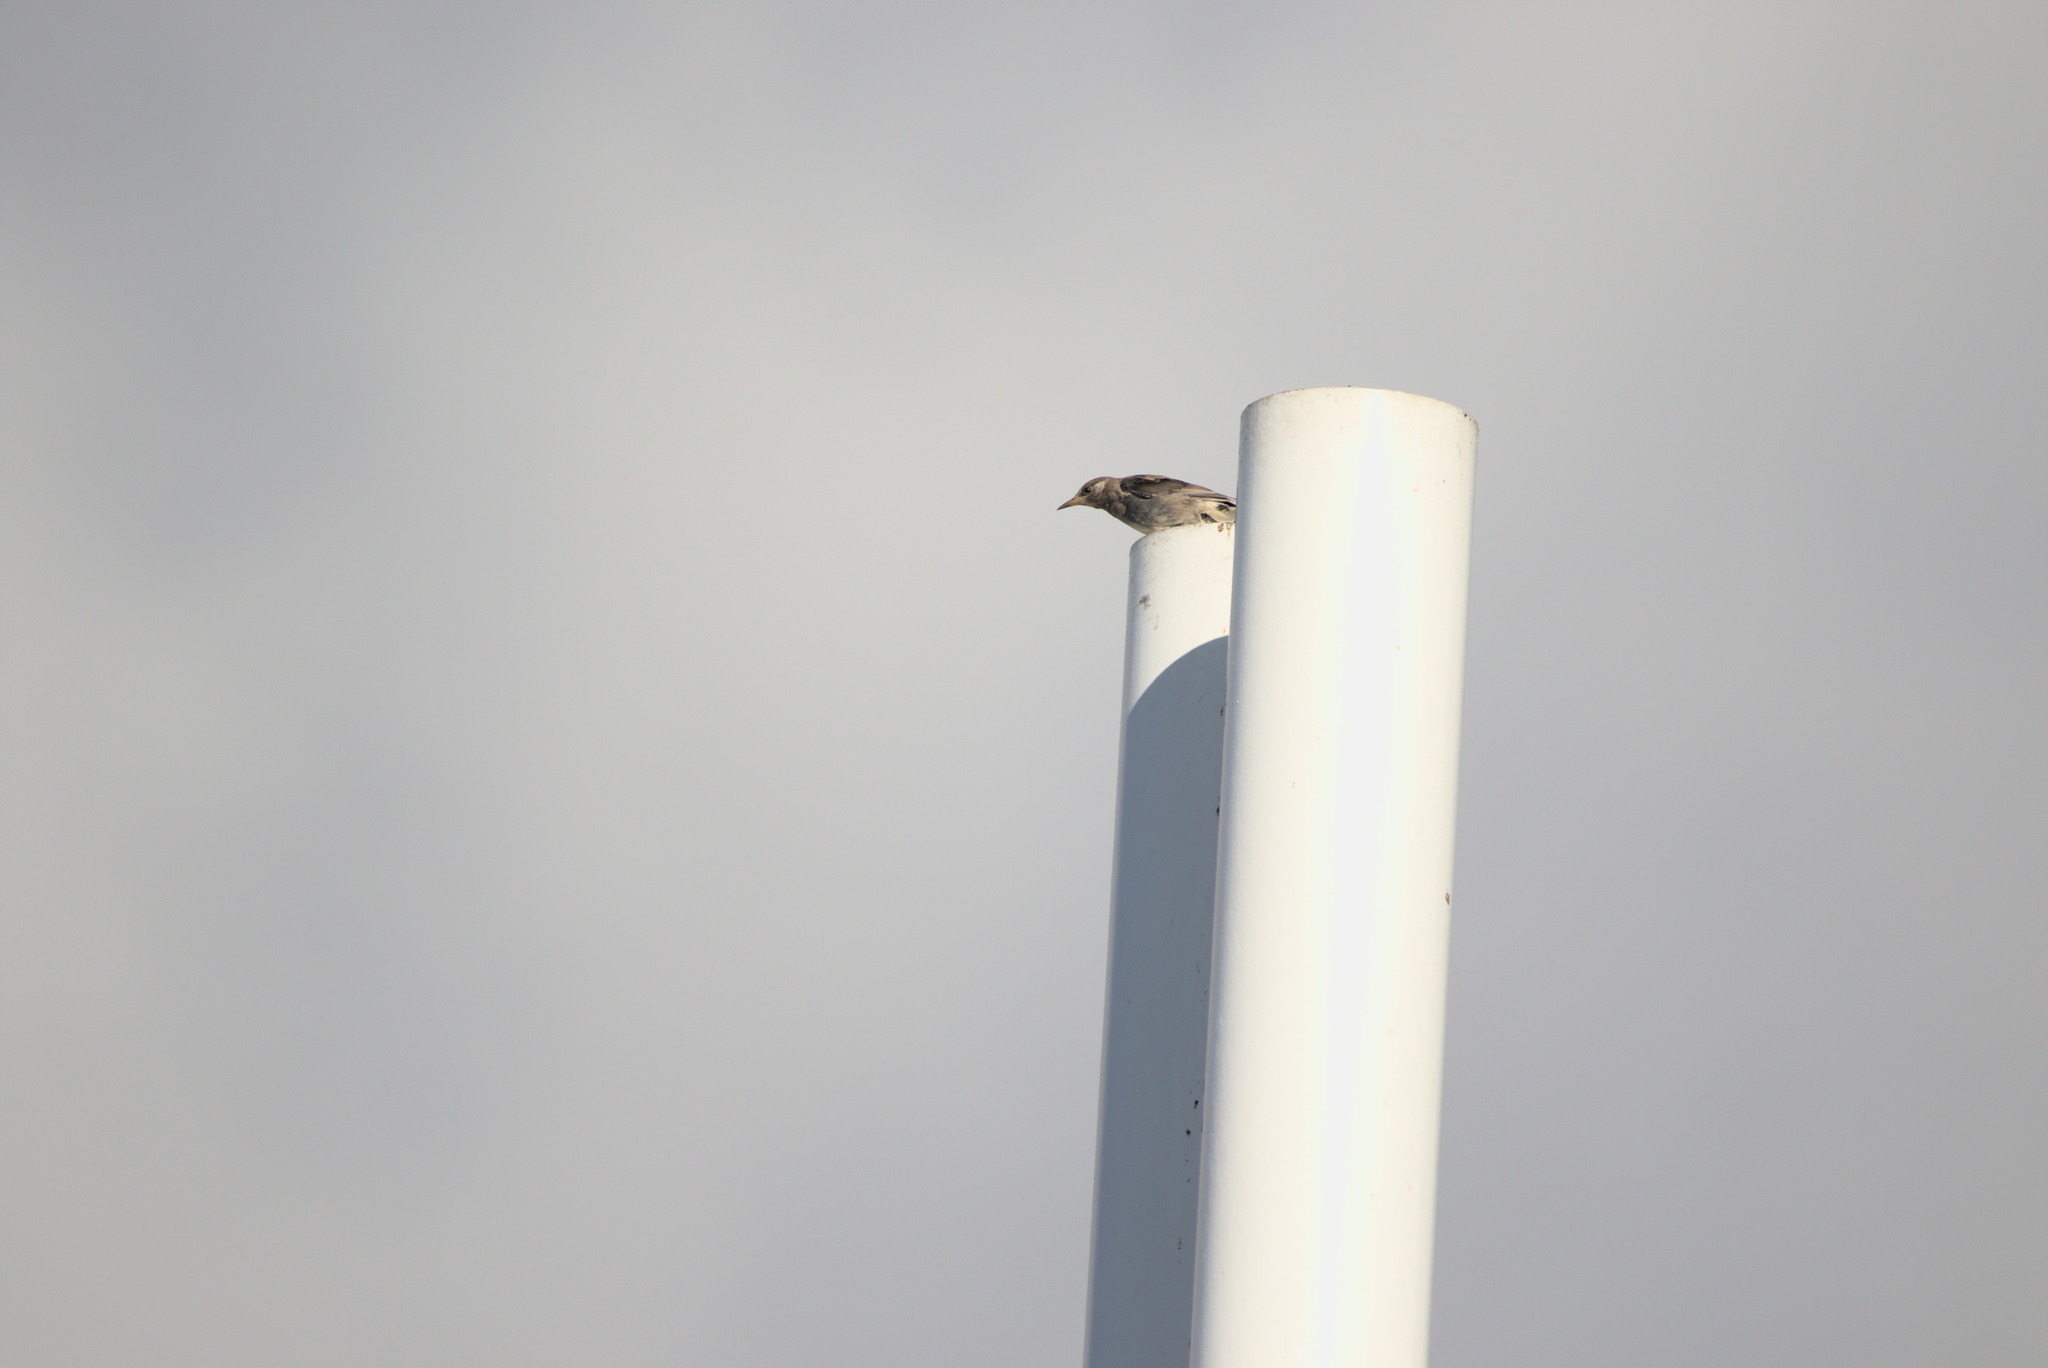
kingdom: Animalia
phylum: Chordata
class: Aves
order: Passeriformes
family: Sturnidae
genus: Spodiopsar
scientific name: Spodiopsar cineraceus
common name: White-cheeked starling
